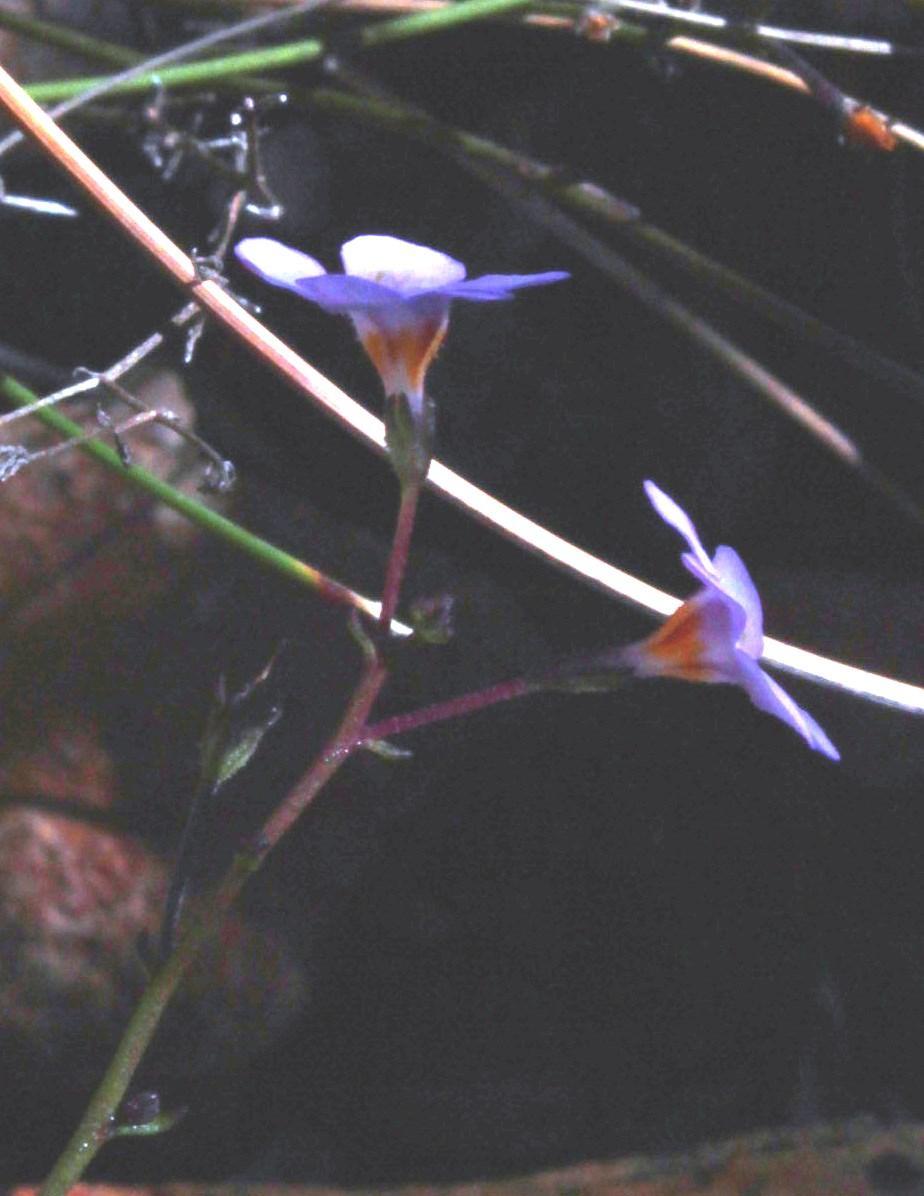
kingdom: Plantae
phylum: Tracheophyta
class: Magnoliopsida
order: Lamiales
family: Scrophulariaceae
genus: Chaenostoma
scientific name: Chaenostoma subnudum
